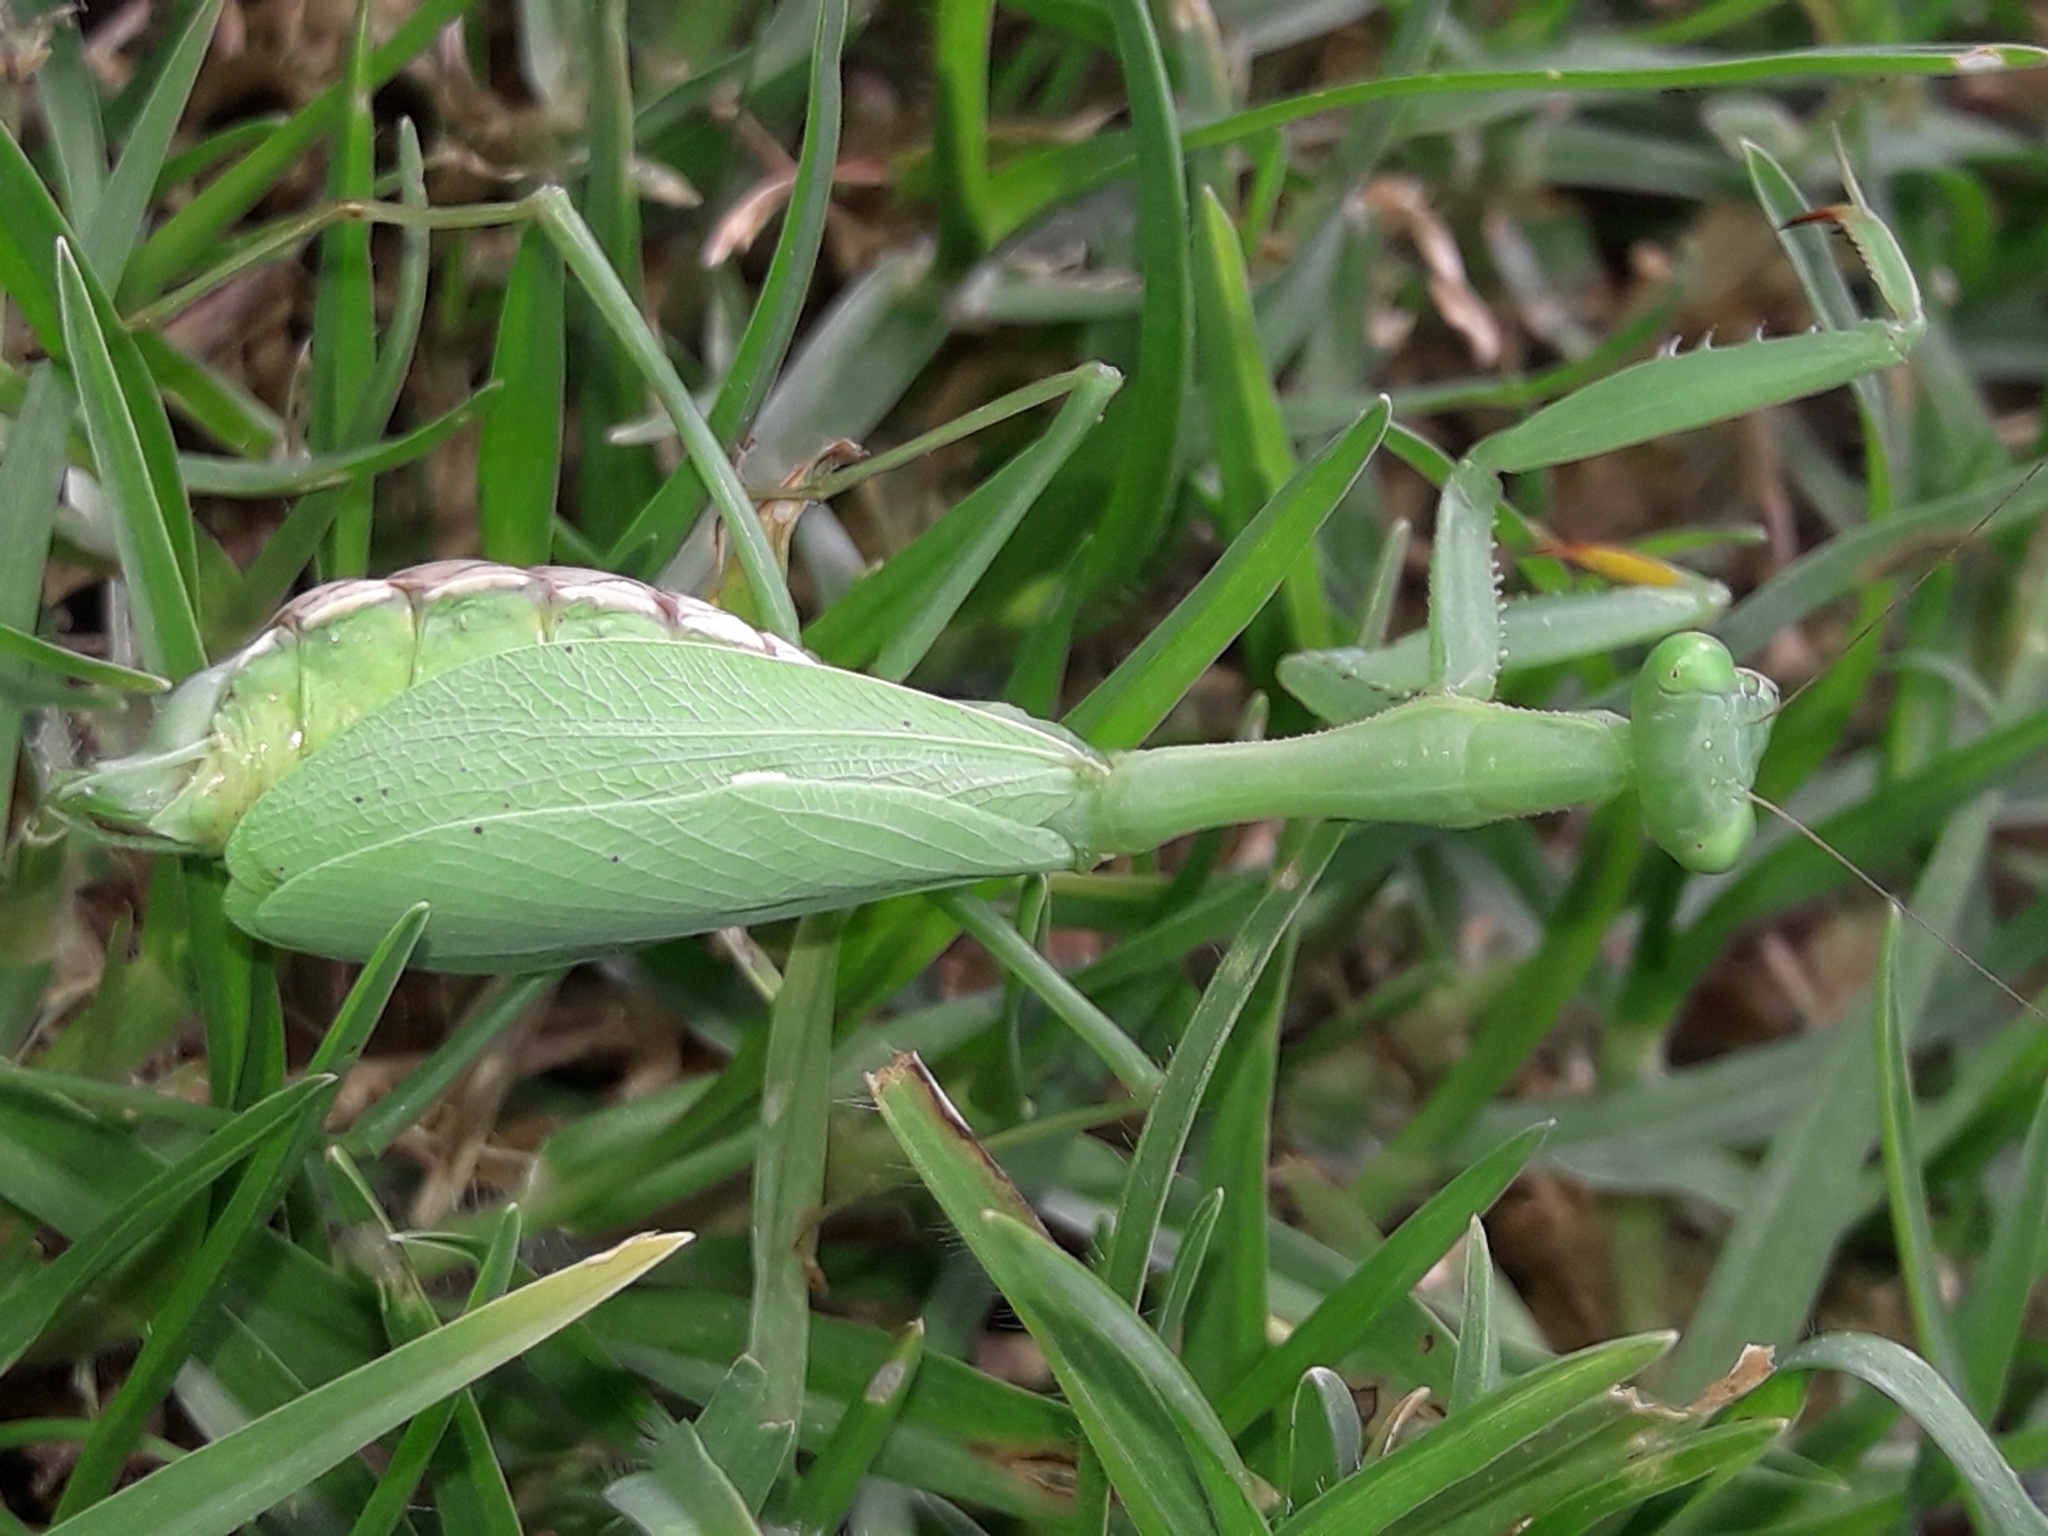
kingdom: Animalia
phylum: Arthropoda
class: Insecta
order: Mantodea
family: Miomantidae
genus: Miomantis
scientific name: Miomantis caffra
